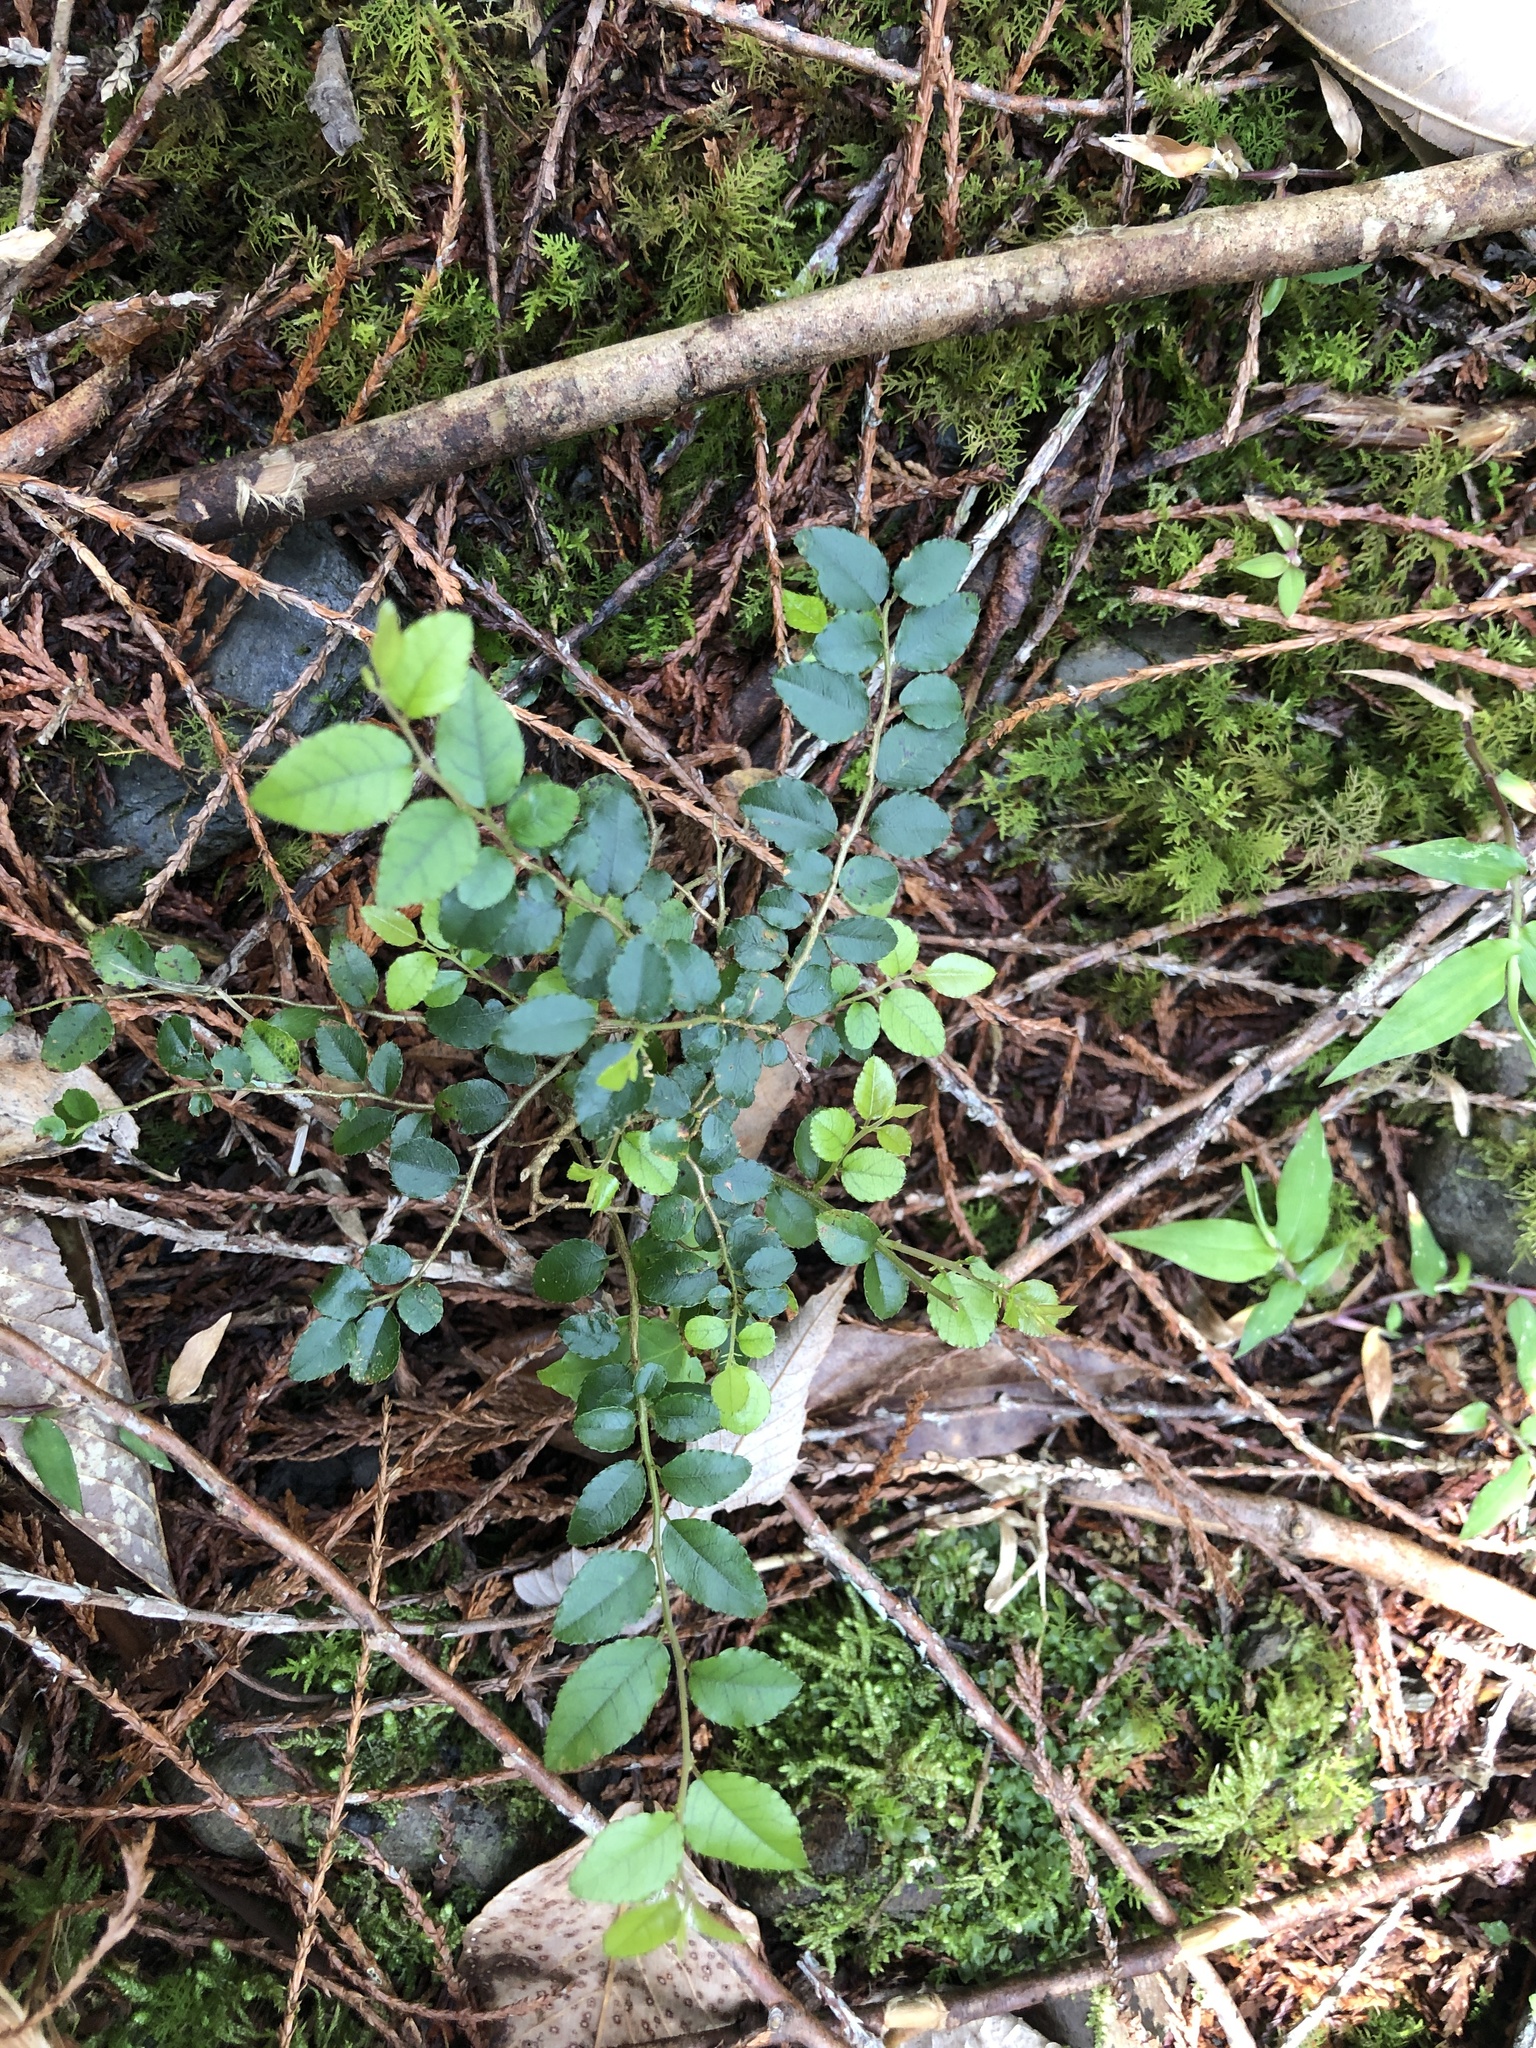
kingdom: Plantae
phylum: Tracheophyta
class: Magnoliopsida
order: Rosales
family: Rhamnaceae
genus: Ventilago
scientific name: Ventilago elegans
